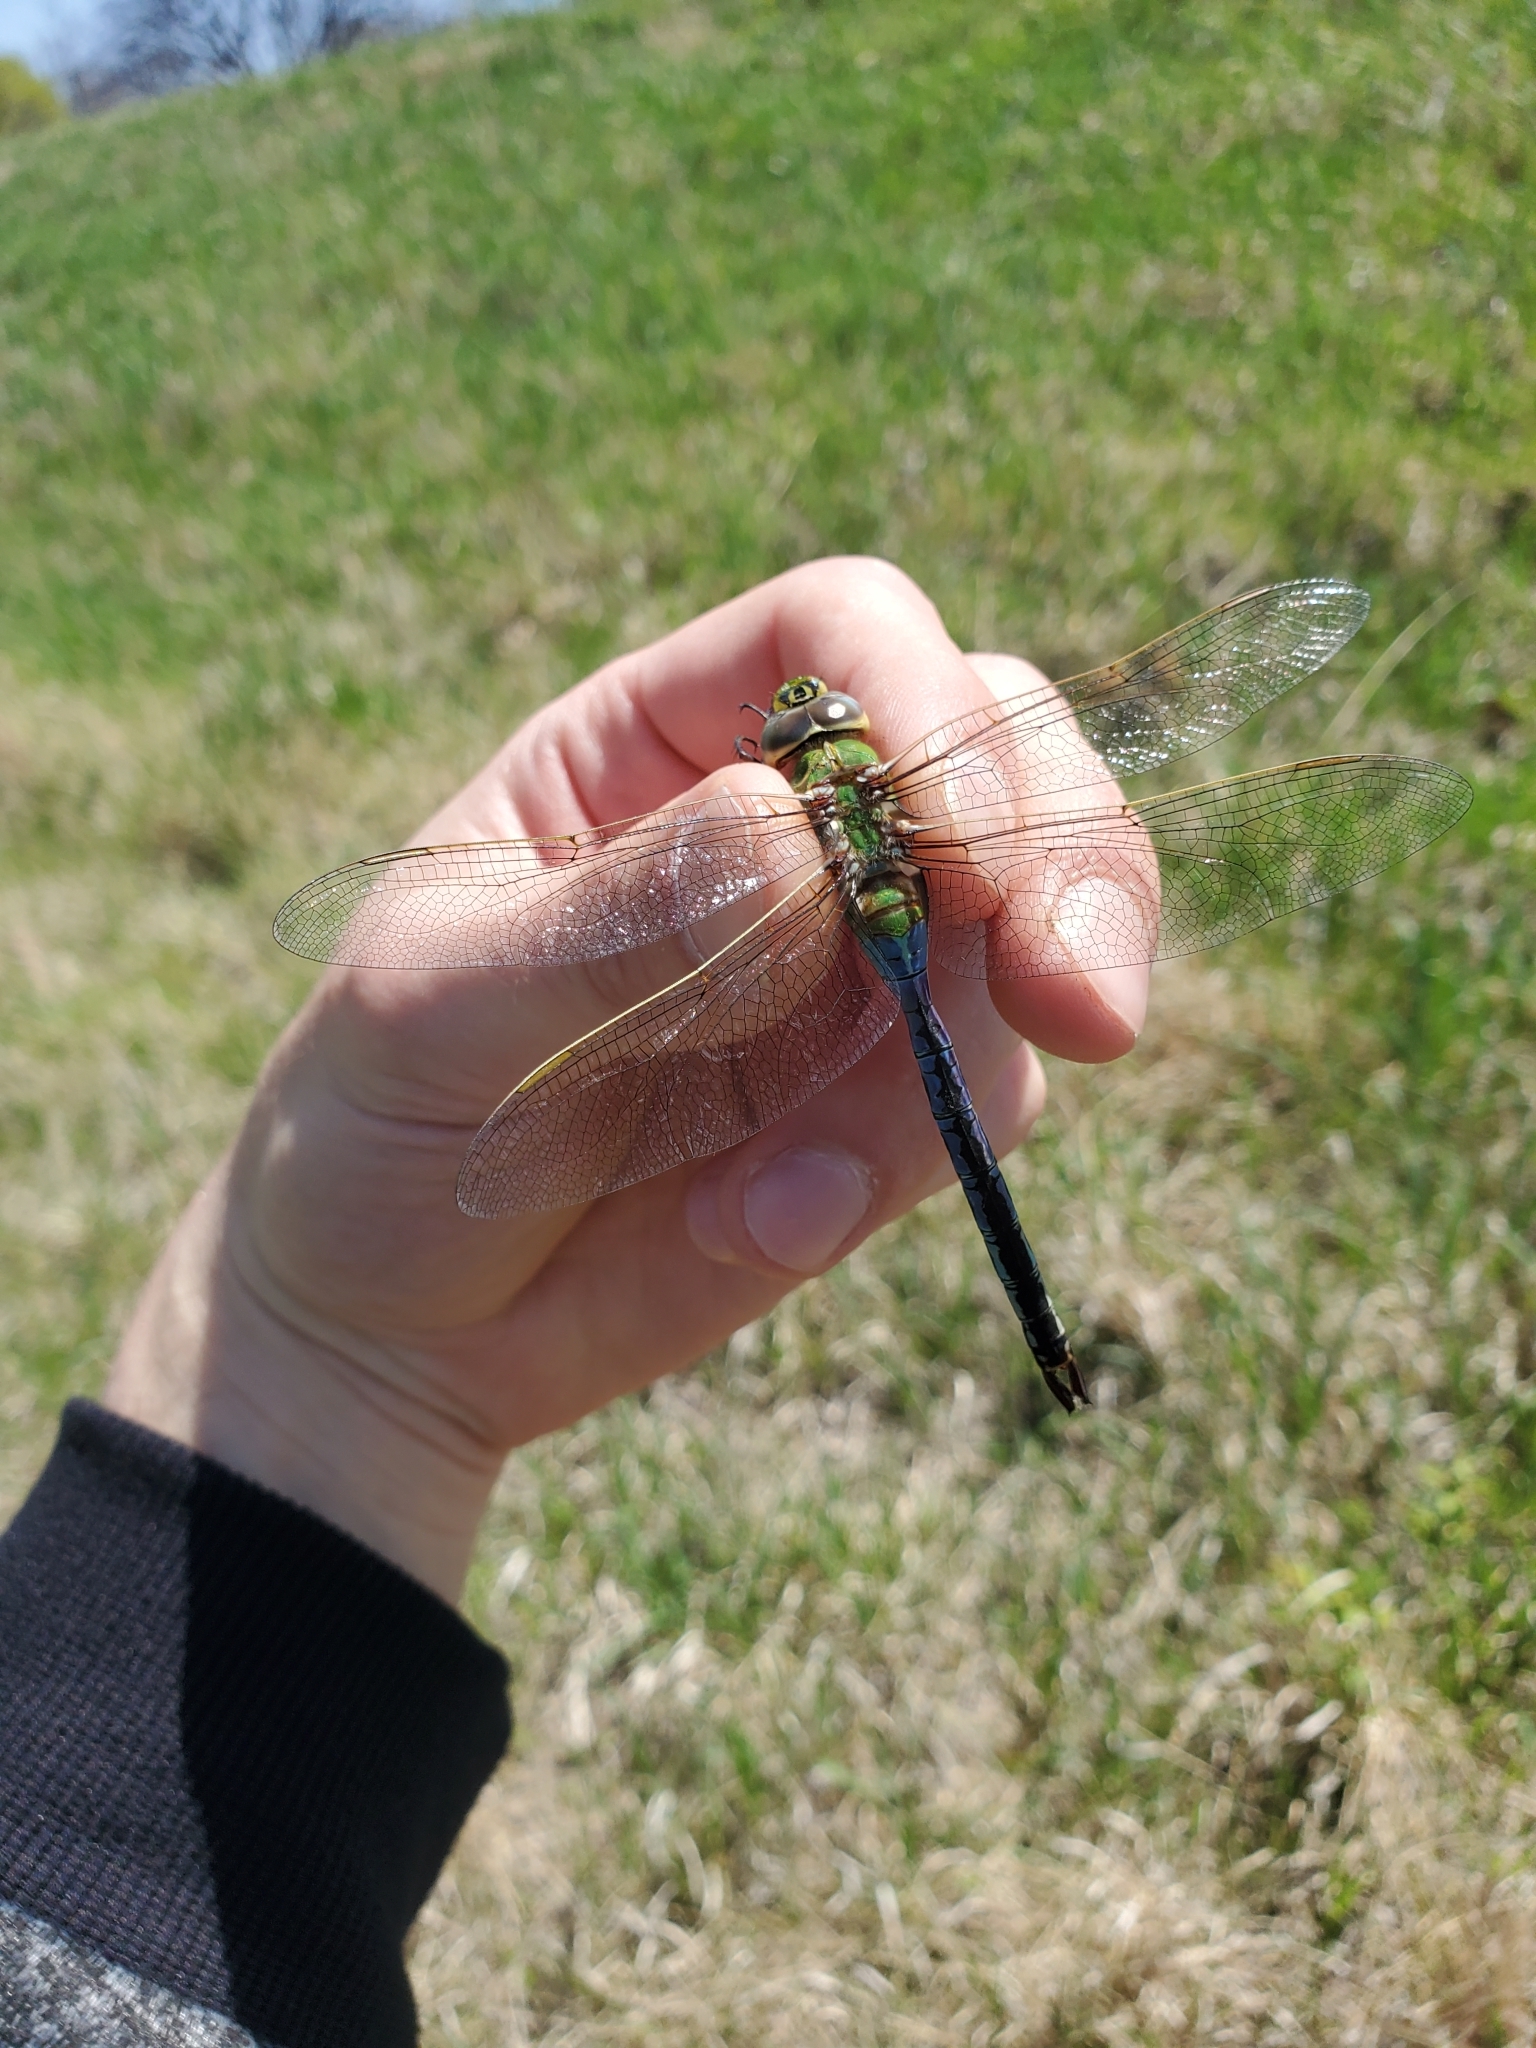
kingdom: Animalia
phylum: Arthropoda
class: Insecta
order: Odonata
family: Aeshnidae
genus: Anax
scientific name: Anax junius
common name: Common green darner
